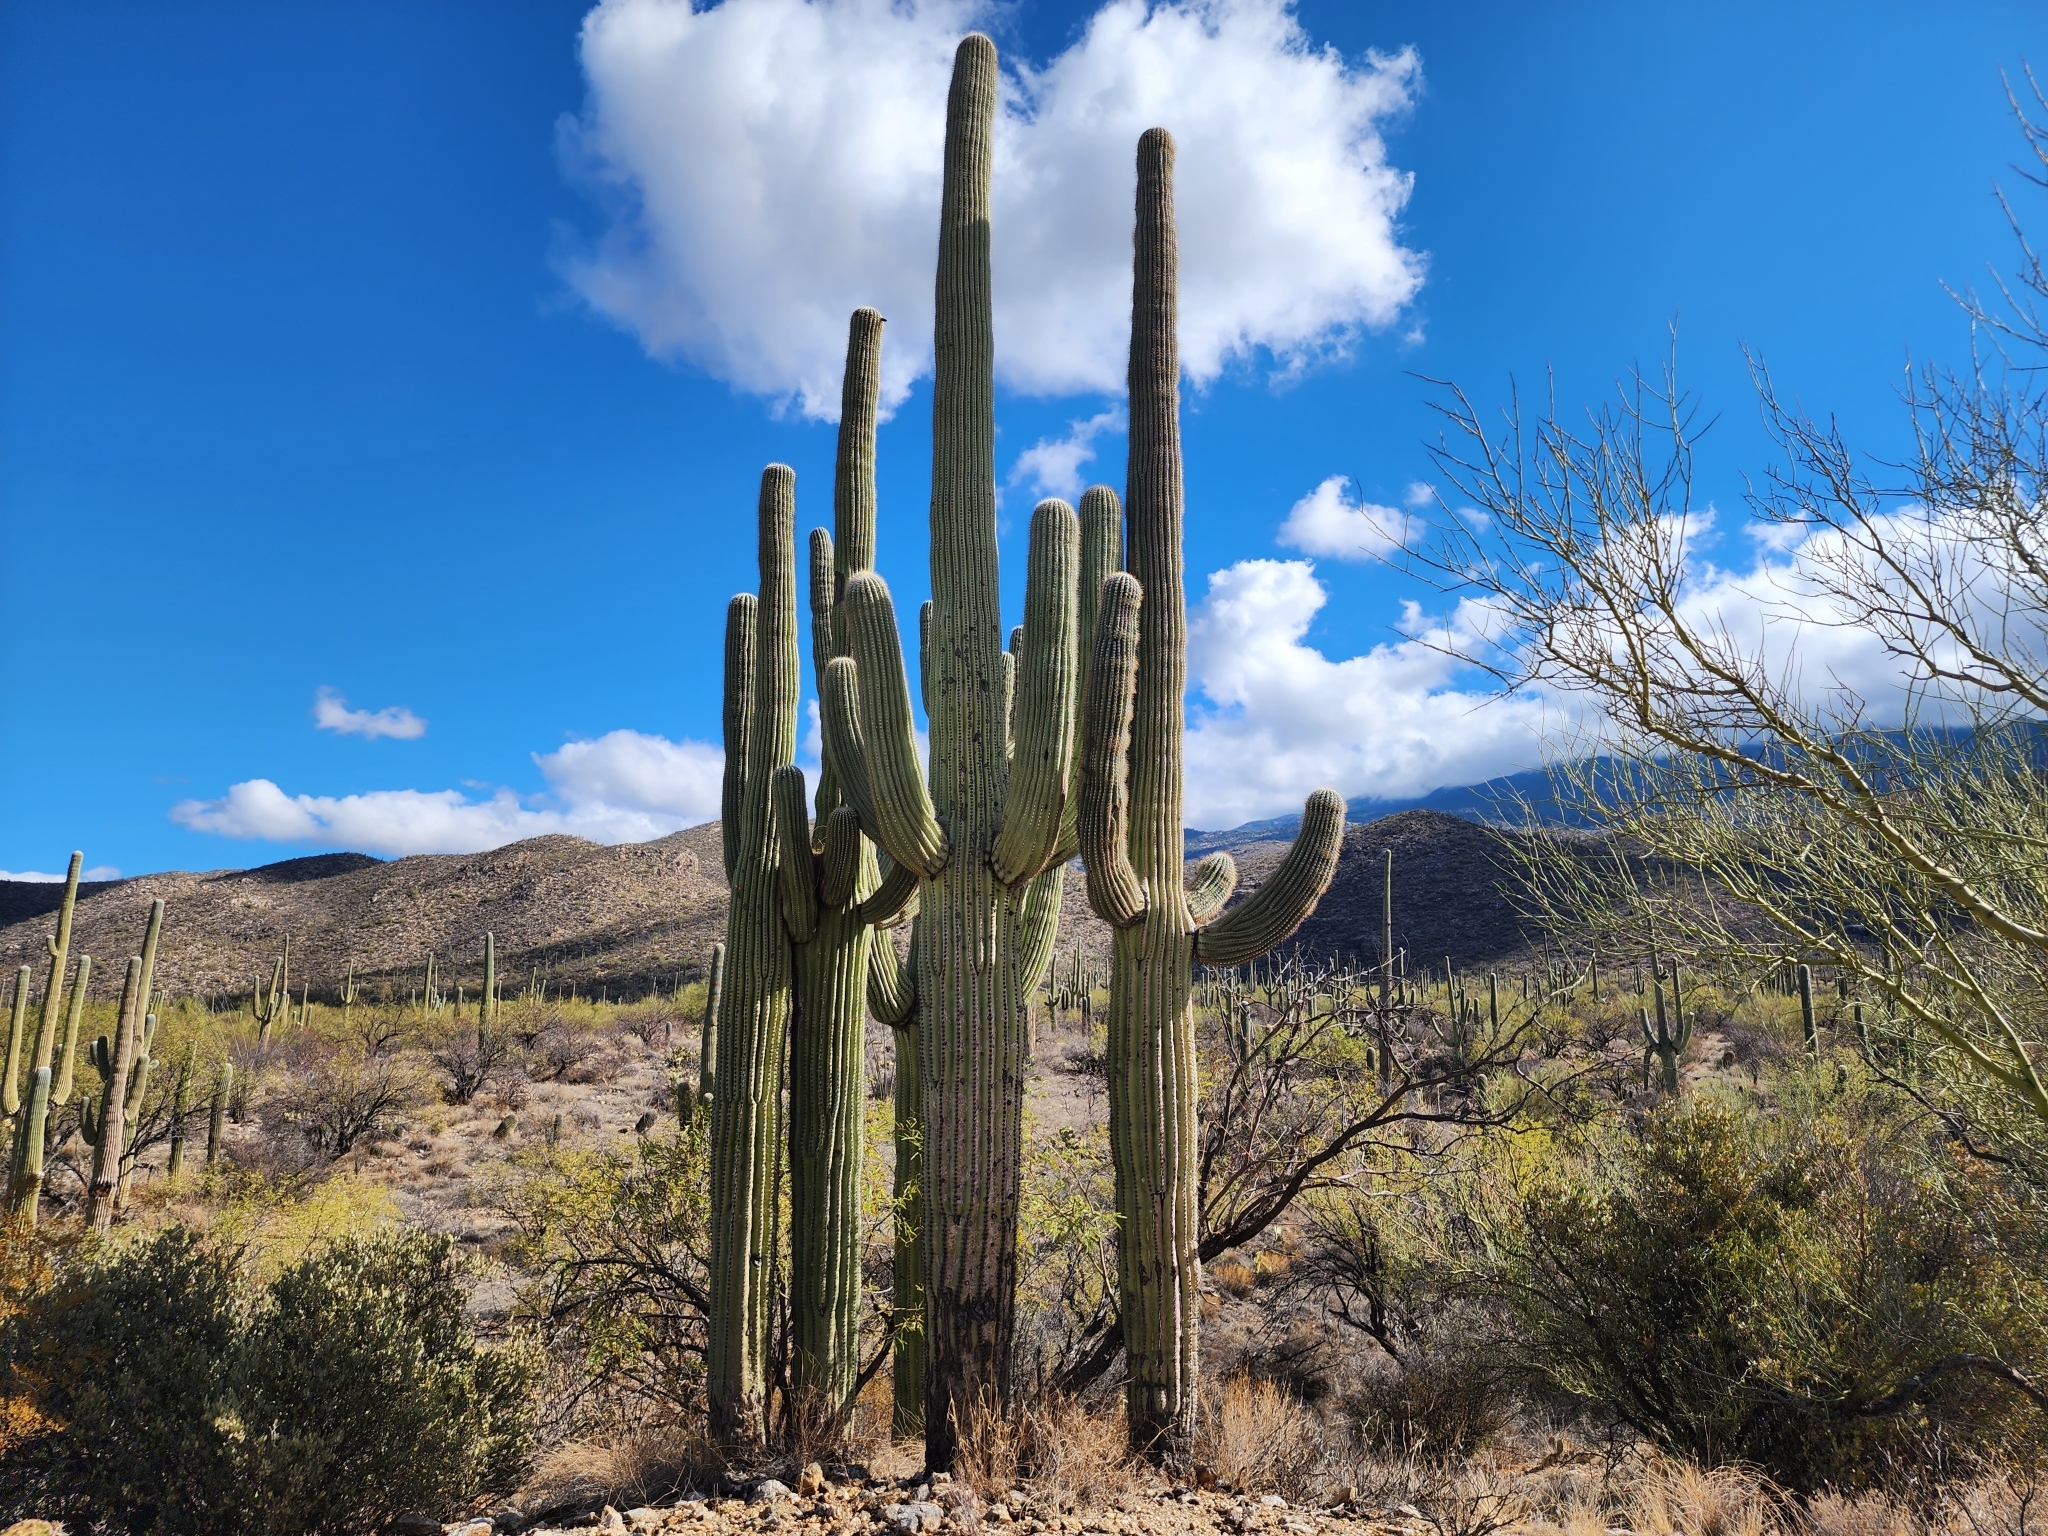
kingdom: Plantae
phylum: Tracheophyta
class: Magnoliopsida
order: Caryophyllales
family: Cactaceae
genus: Carnegiea
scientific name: Carnegiea gigantea
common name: Saguaro
